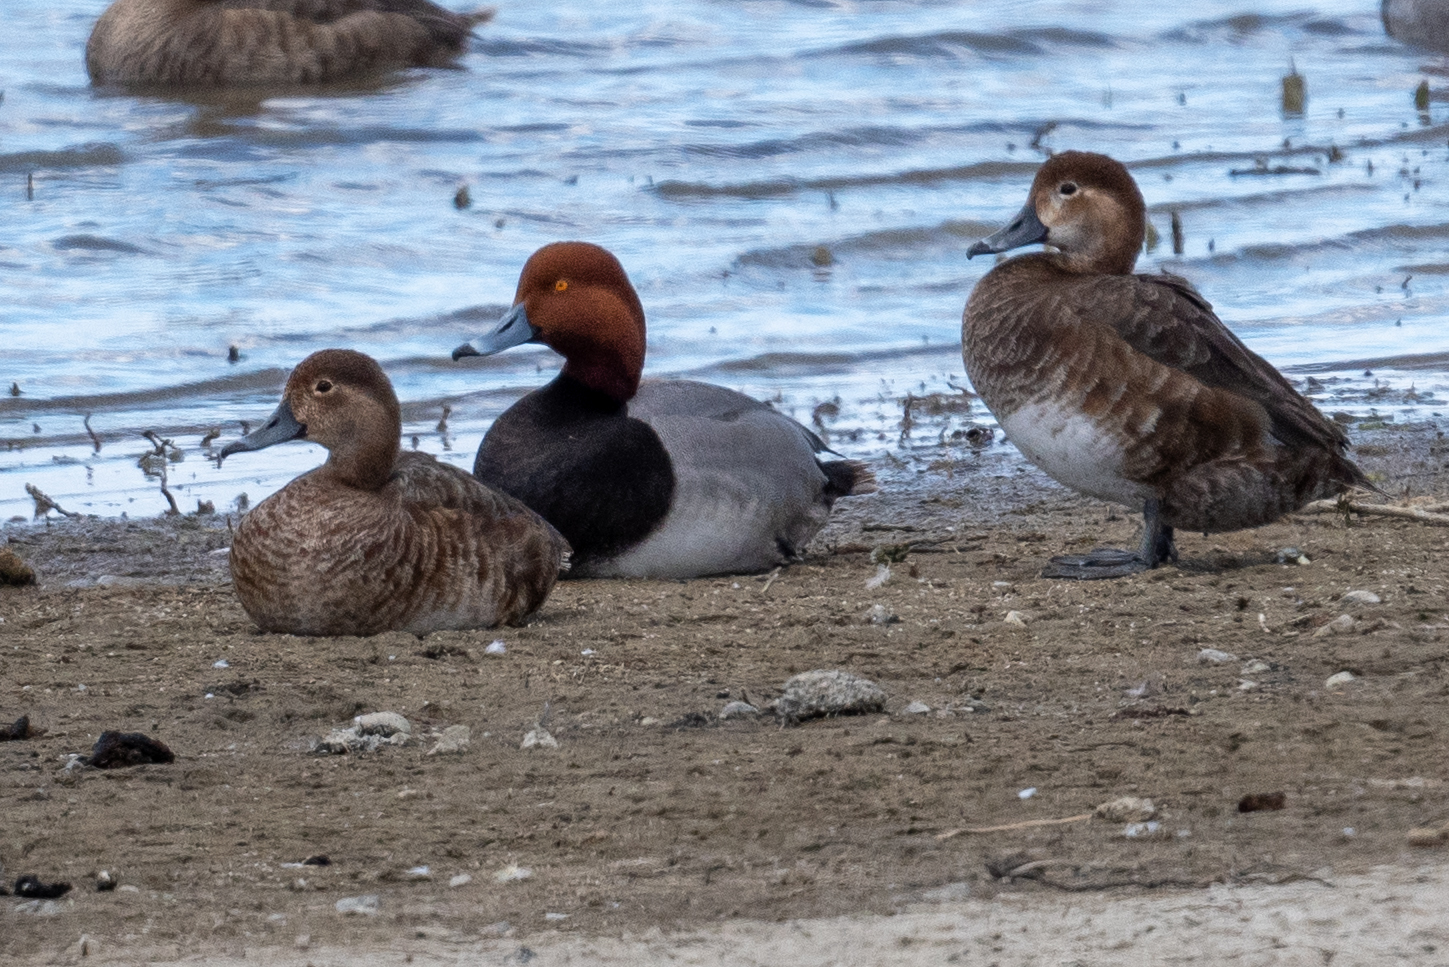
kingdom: Animalia
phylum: Chordata
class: Aves
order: Anseriformes
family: Anatidae
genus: Aythya
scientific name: Aythya americana
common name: Redhead
